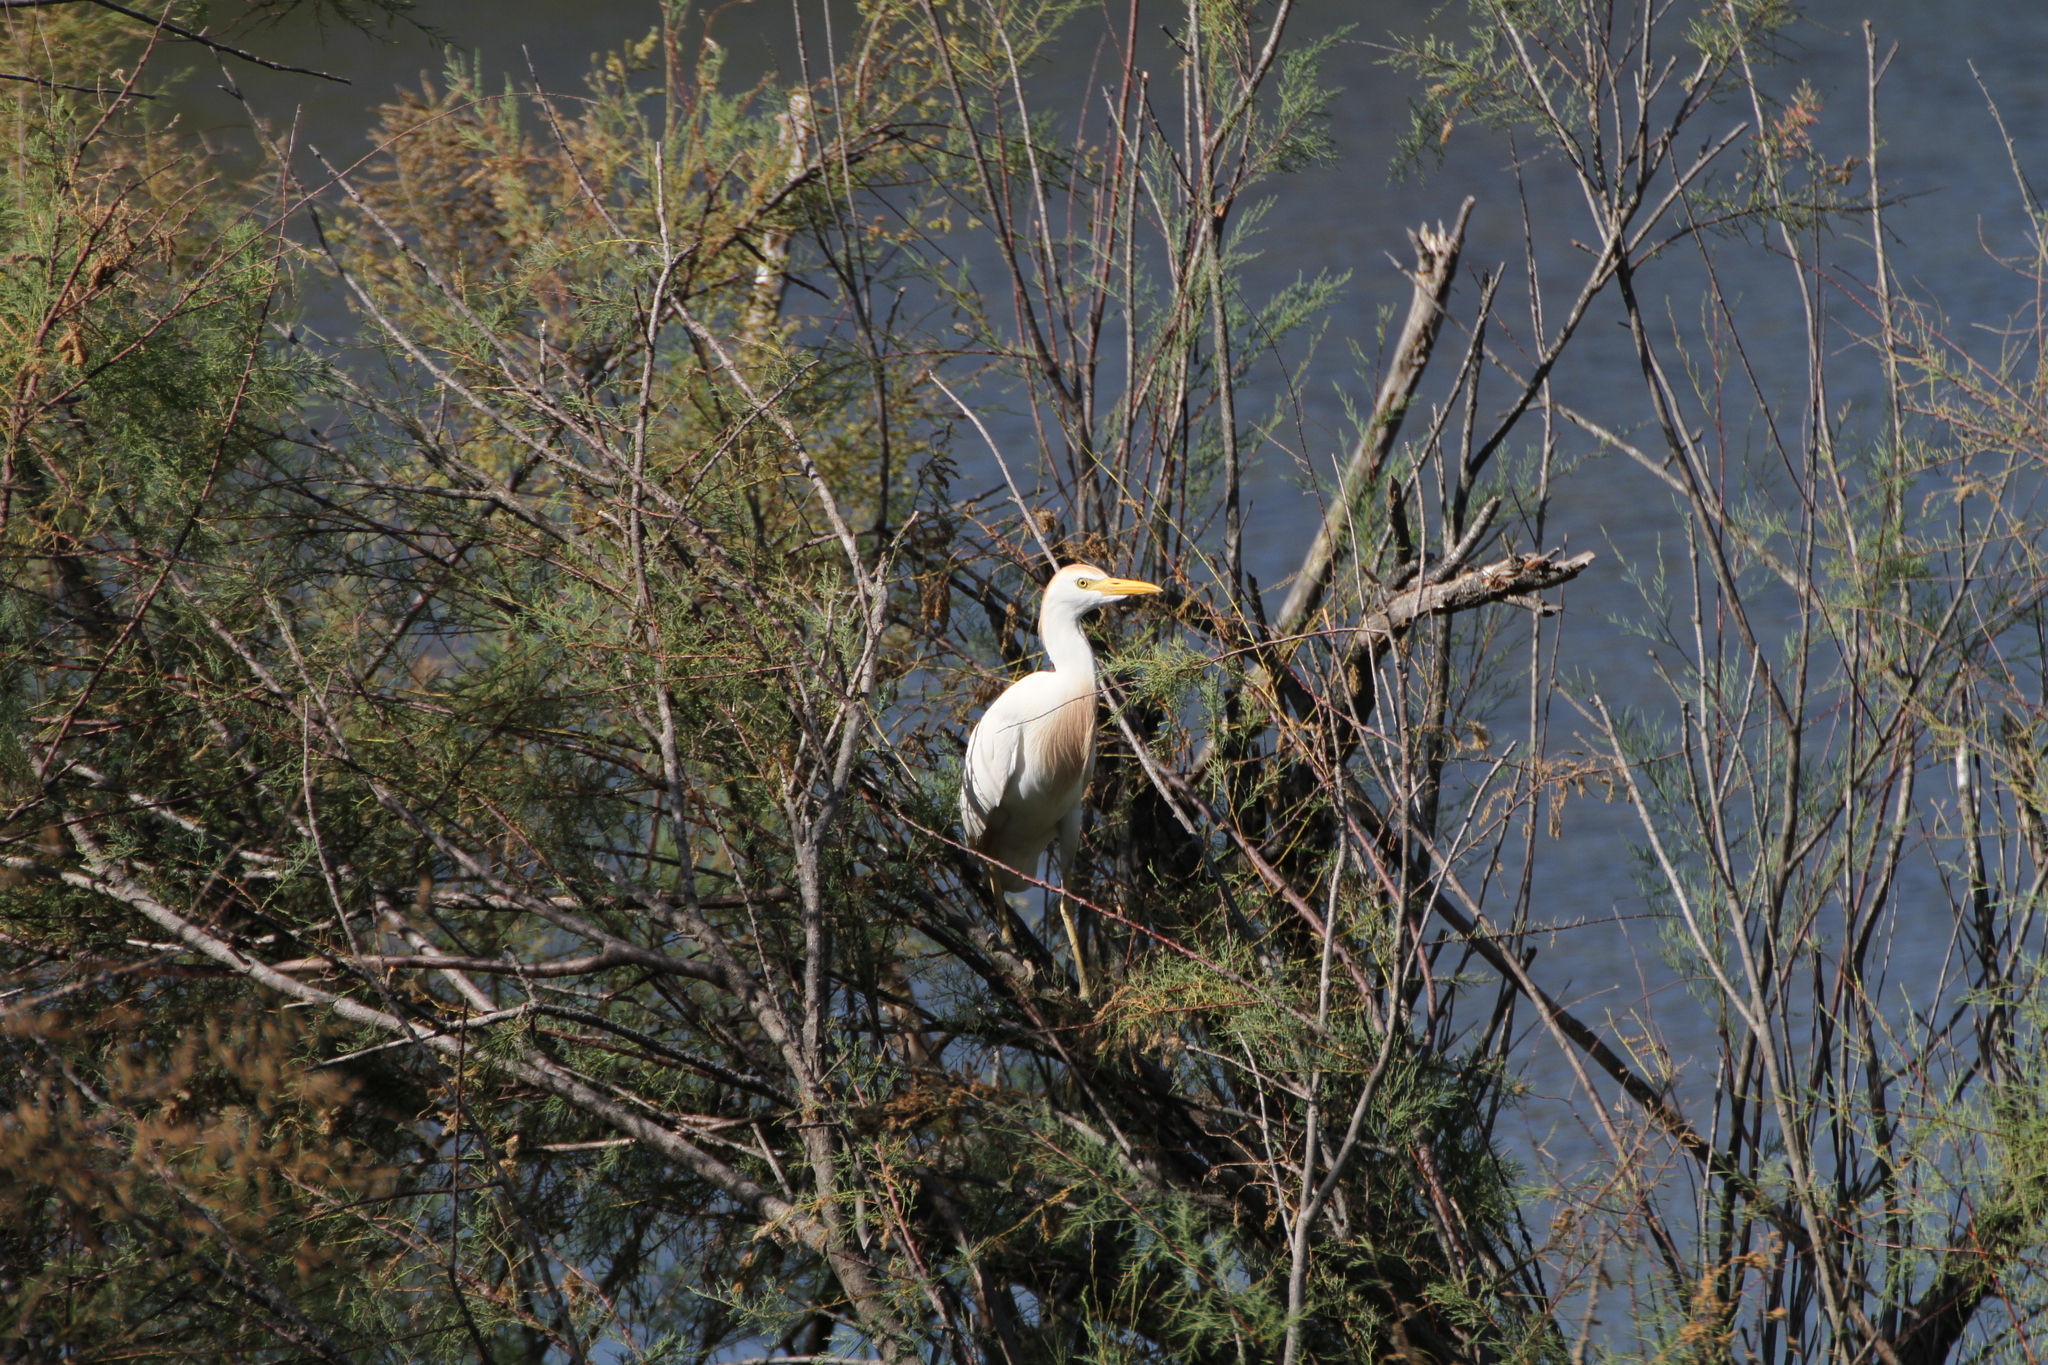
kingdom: Animalia
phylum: Chordata
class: Aves
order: Pelecaniformes
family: Ardeidae
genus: Bubulcus
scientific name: Bubulcus ibis
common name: Cattle egret
